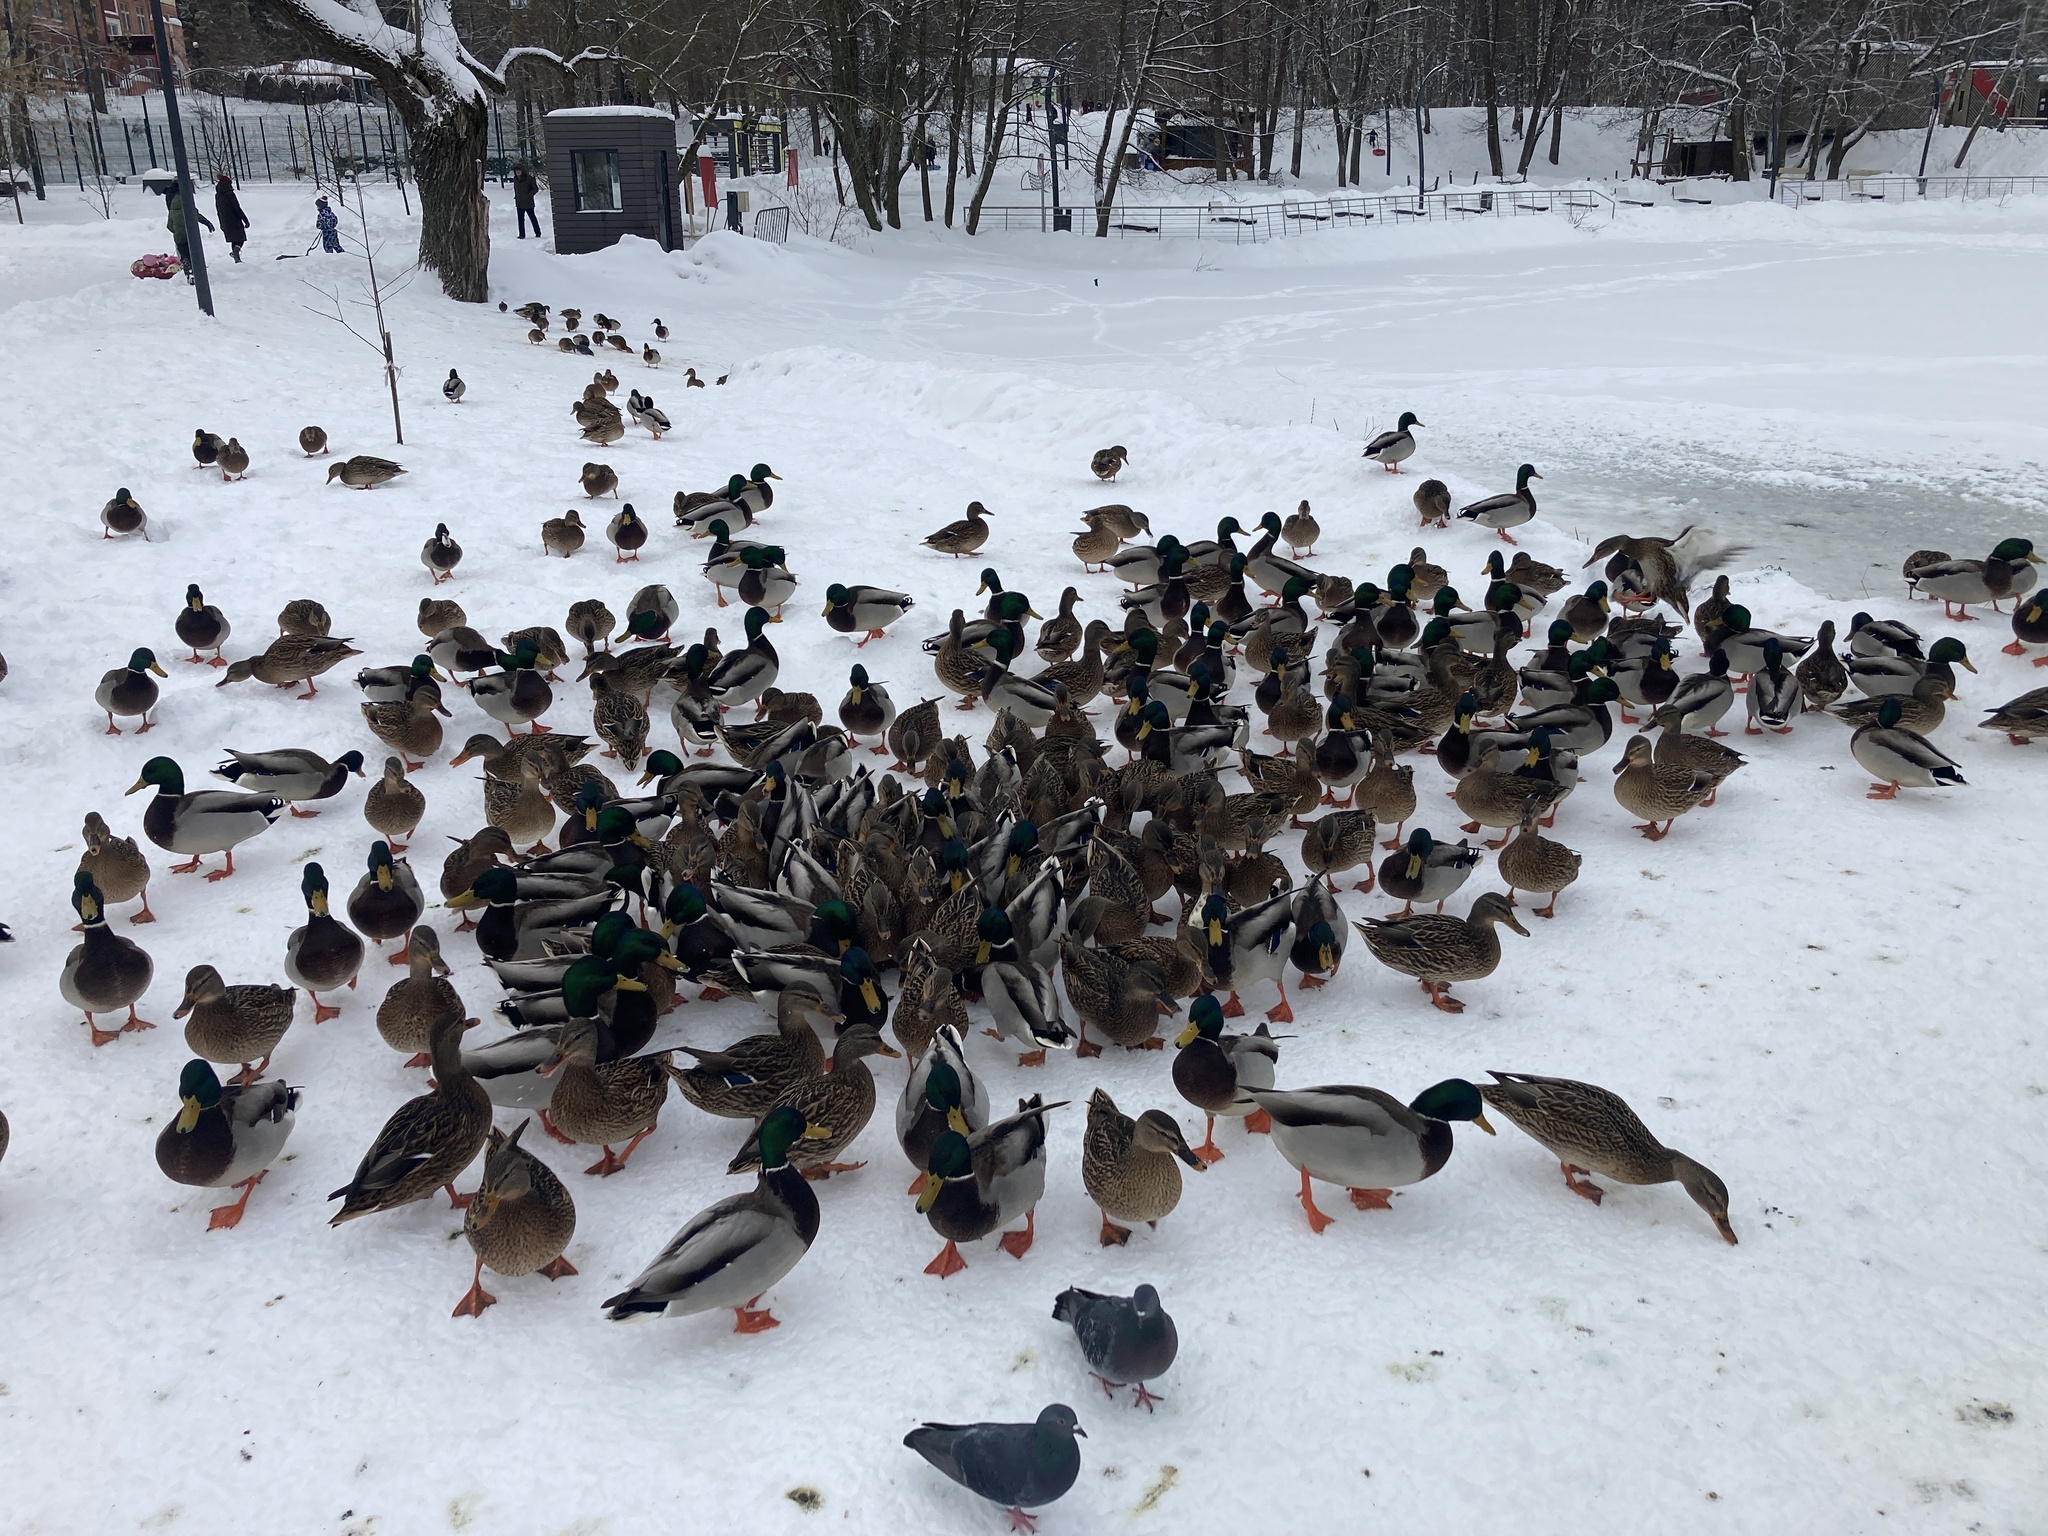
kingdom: Animalia
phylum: Chordata
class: Aves
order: Anseriformes
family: Anatidae
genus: Anas
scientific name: Anas platyrhynchos
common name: Mallard
